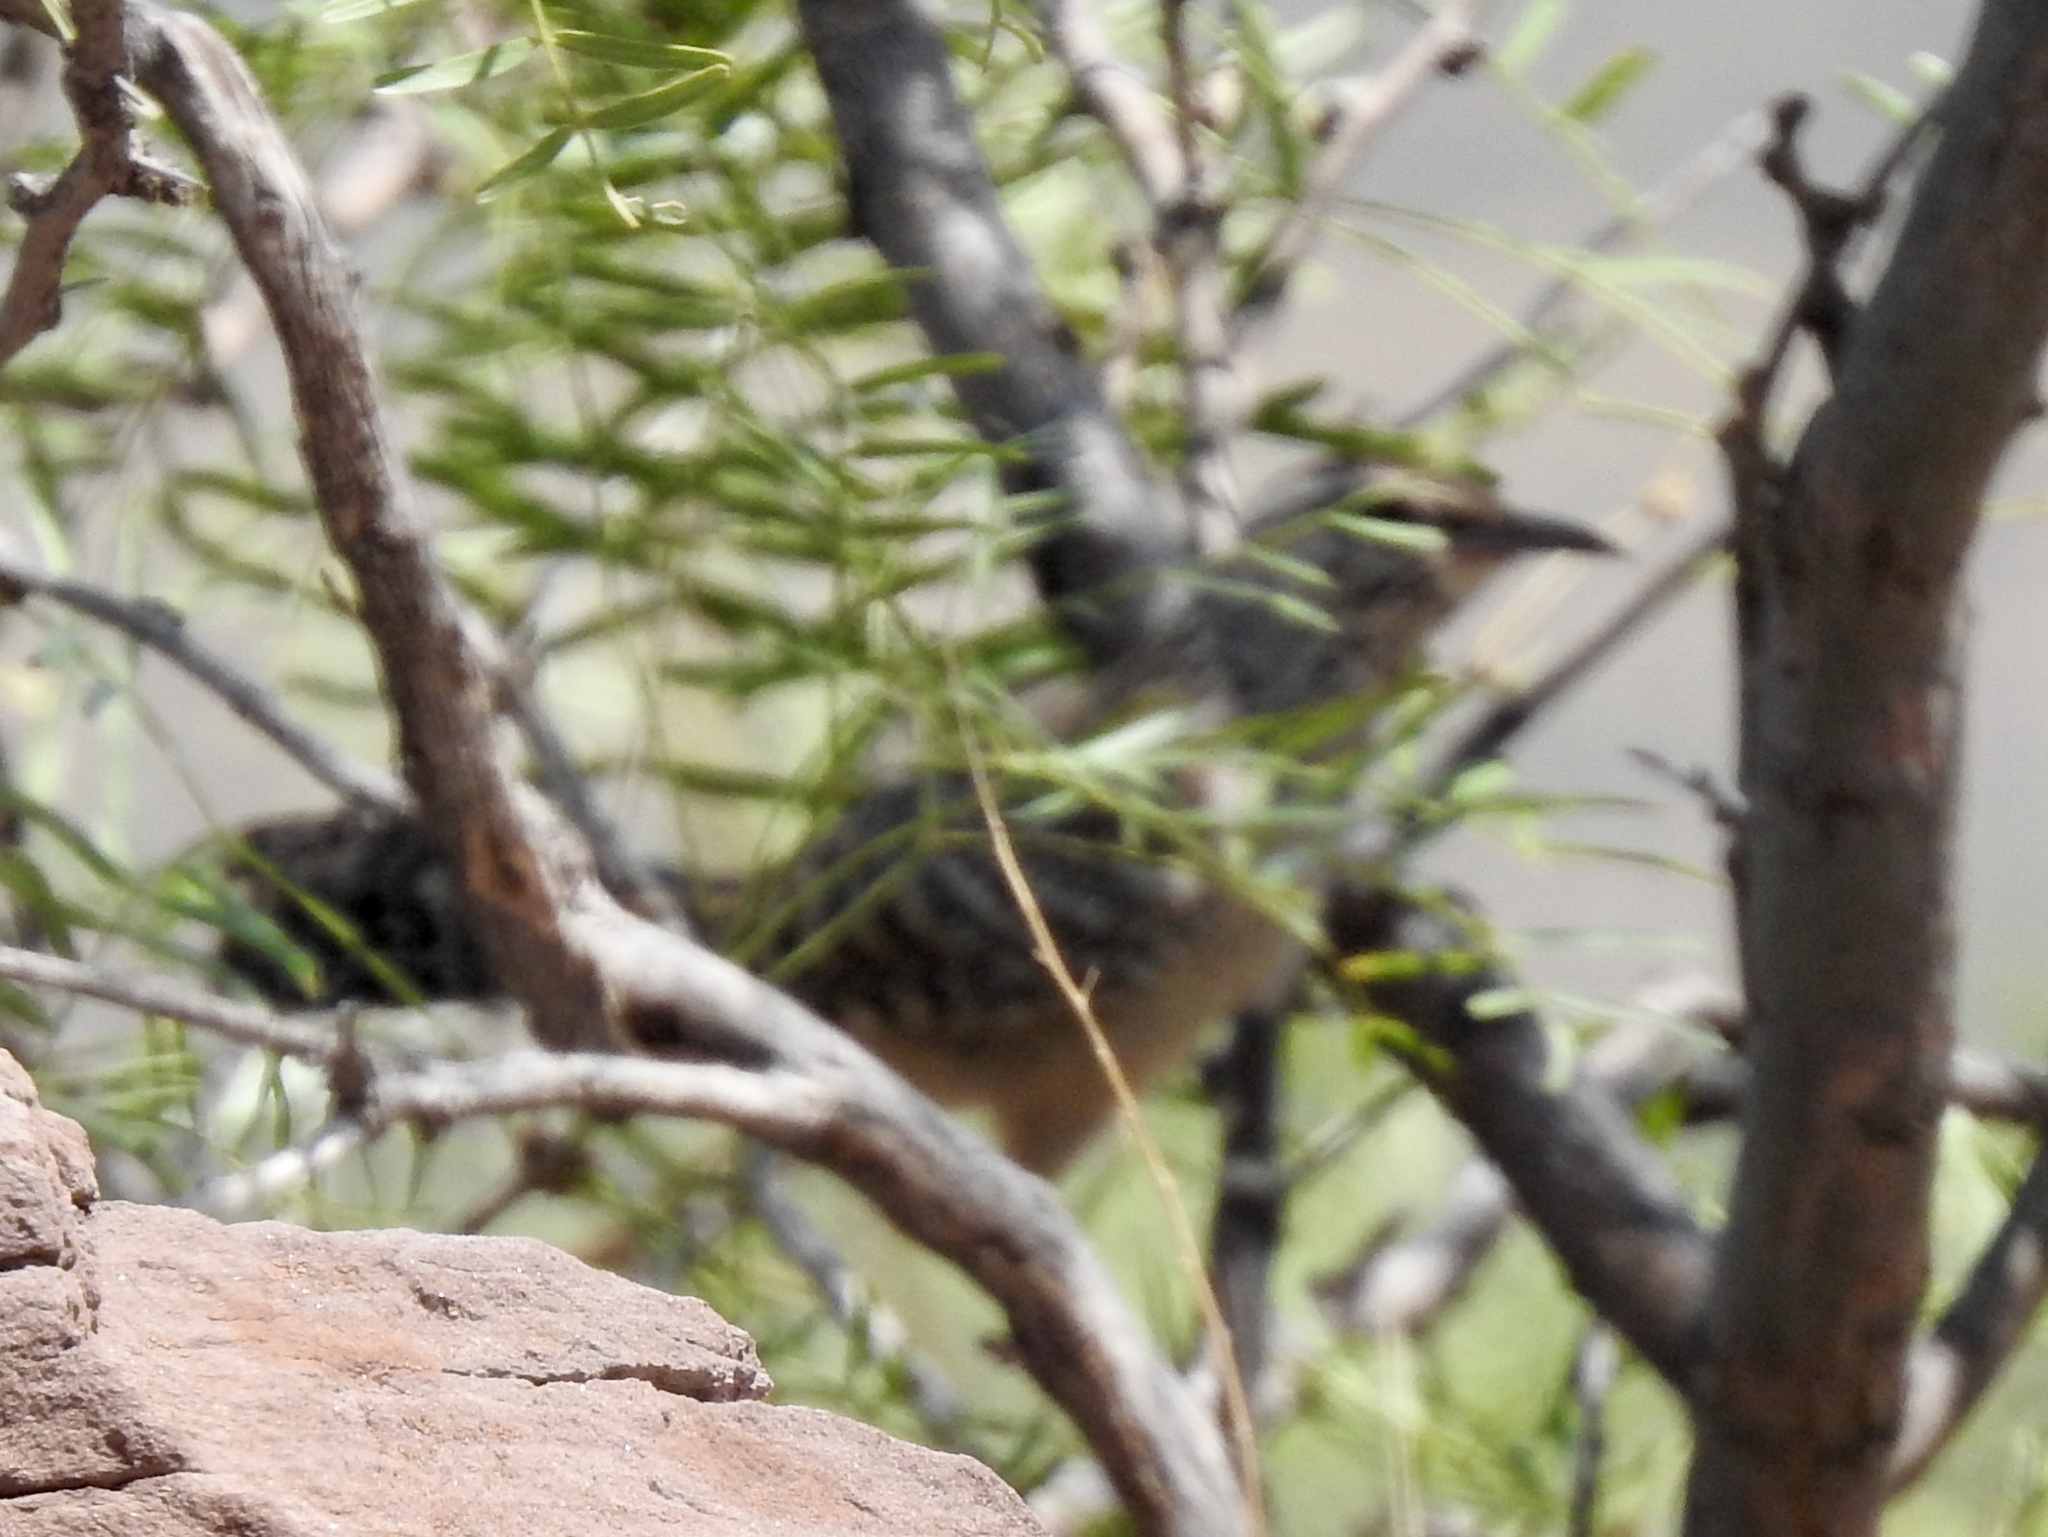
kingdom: Animalia
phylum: Chordata
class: Aves
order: Passeriformes
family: Troglodytidae
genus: Campylorhynchus
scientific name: Campylorhynchus brunneicapillus
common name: Cactus wren
